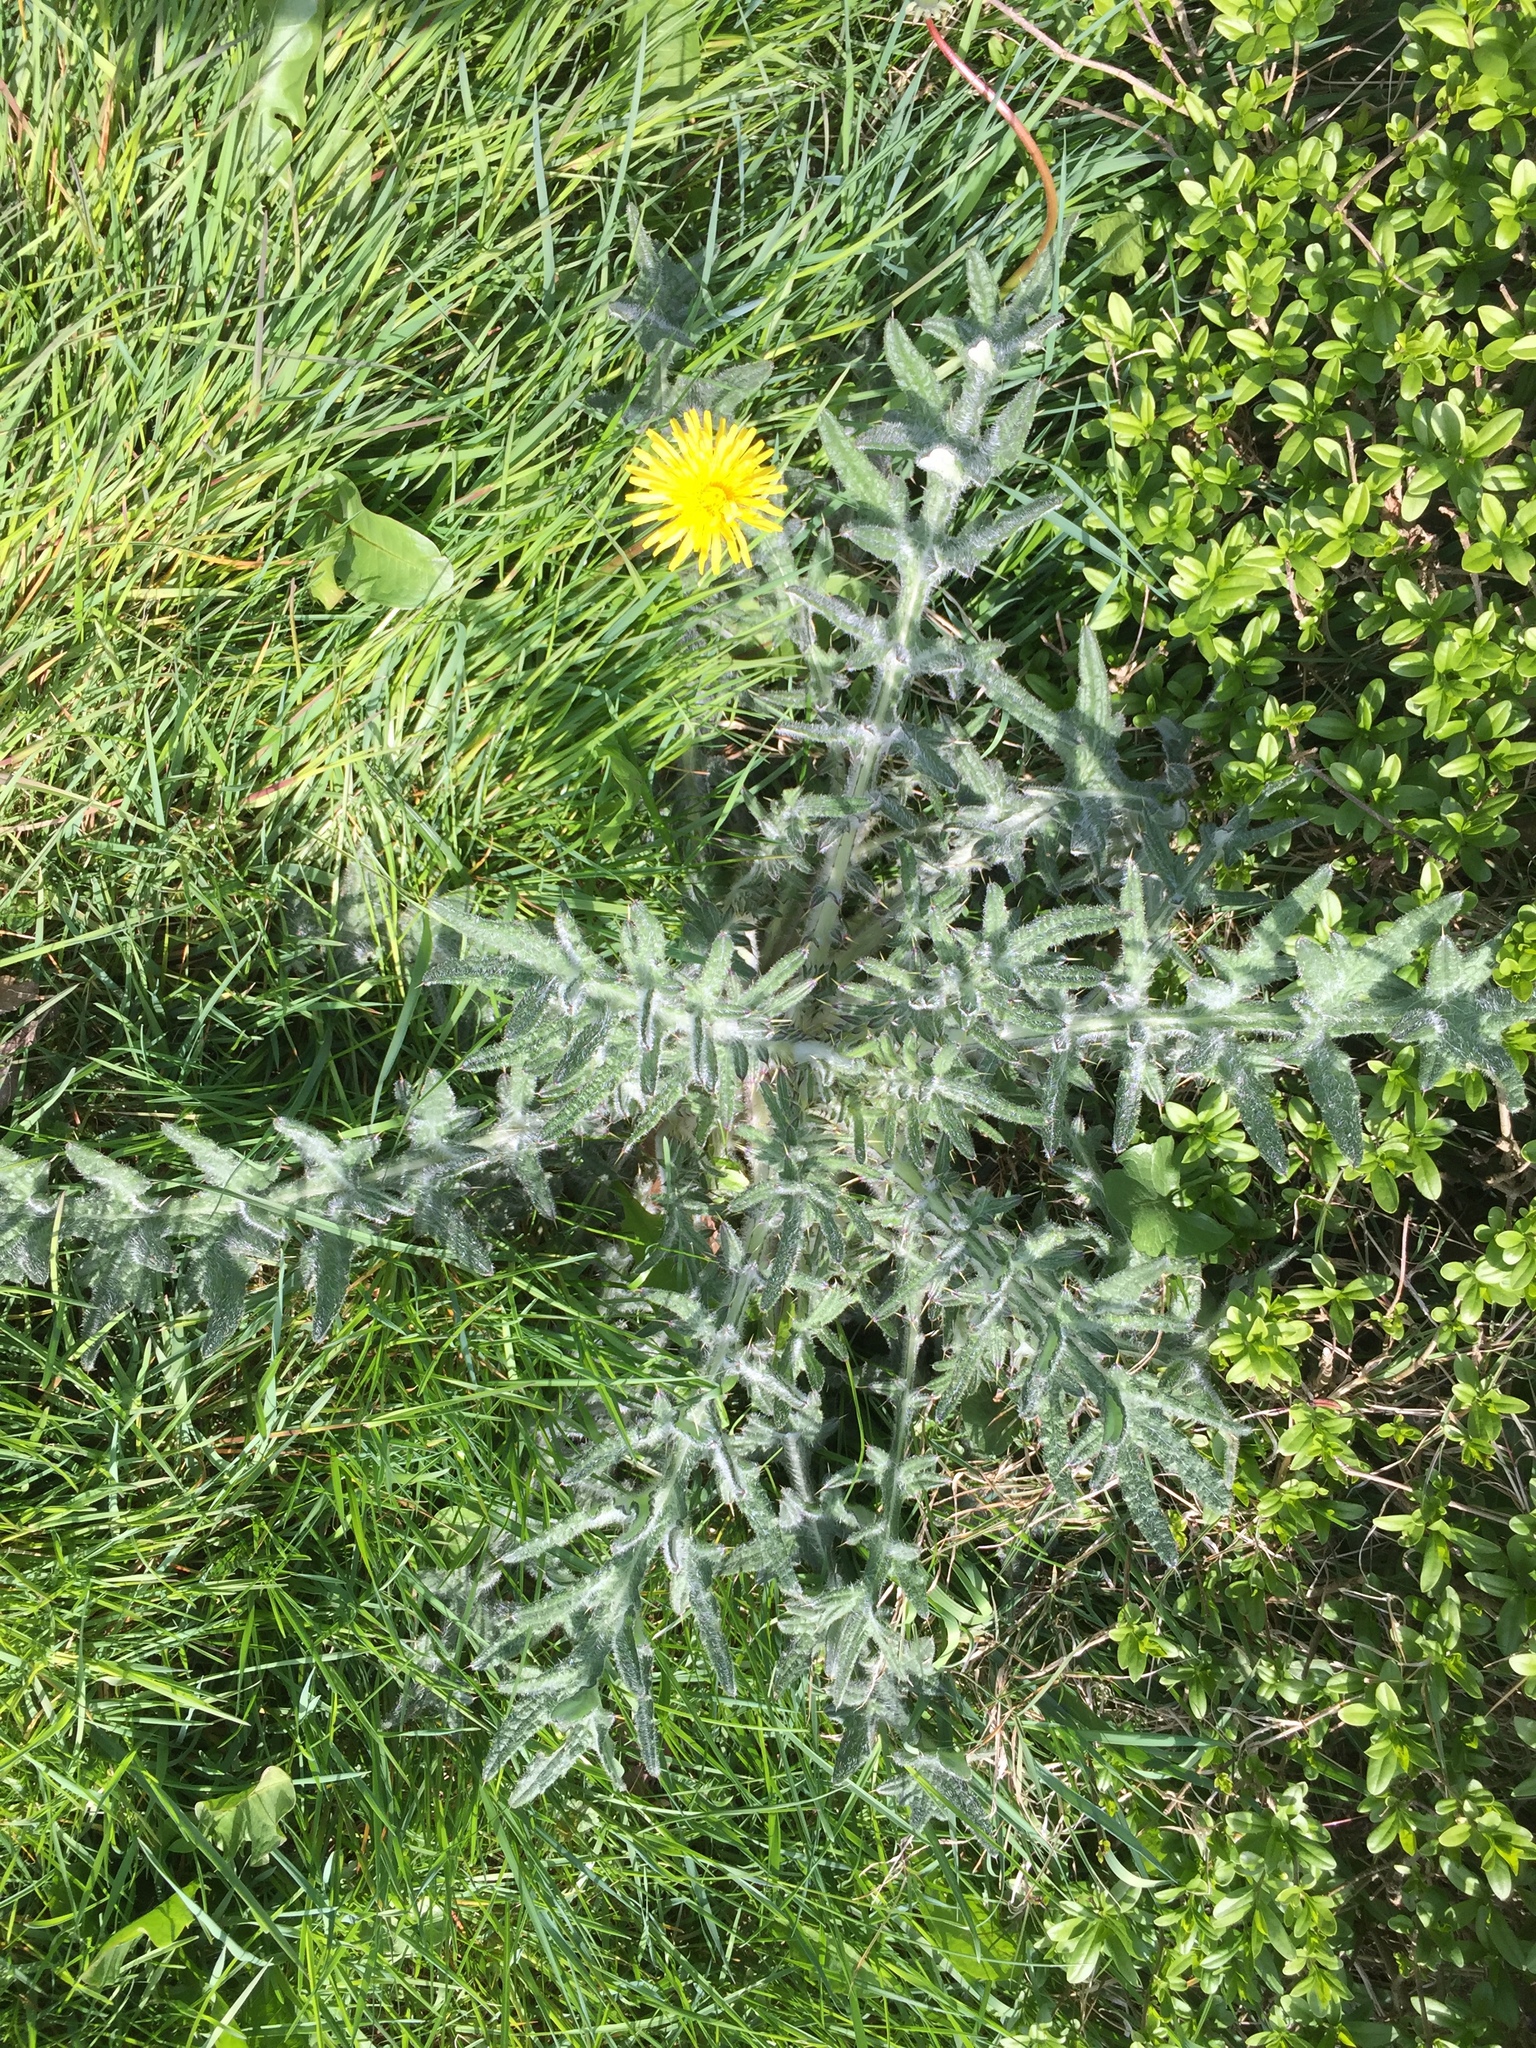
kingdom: Plantae
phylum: Tracheophyta
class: Magnoliopsida
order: Asterales
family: Asteraceae
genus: Cirsium
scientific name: Cirsium vulgare
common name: Bull thistle
